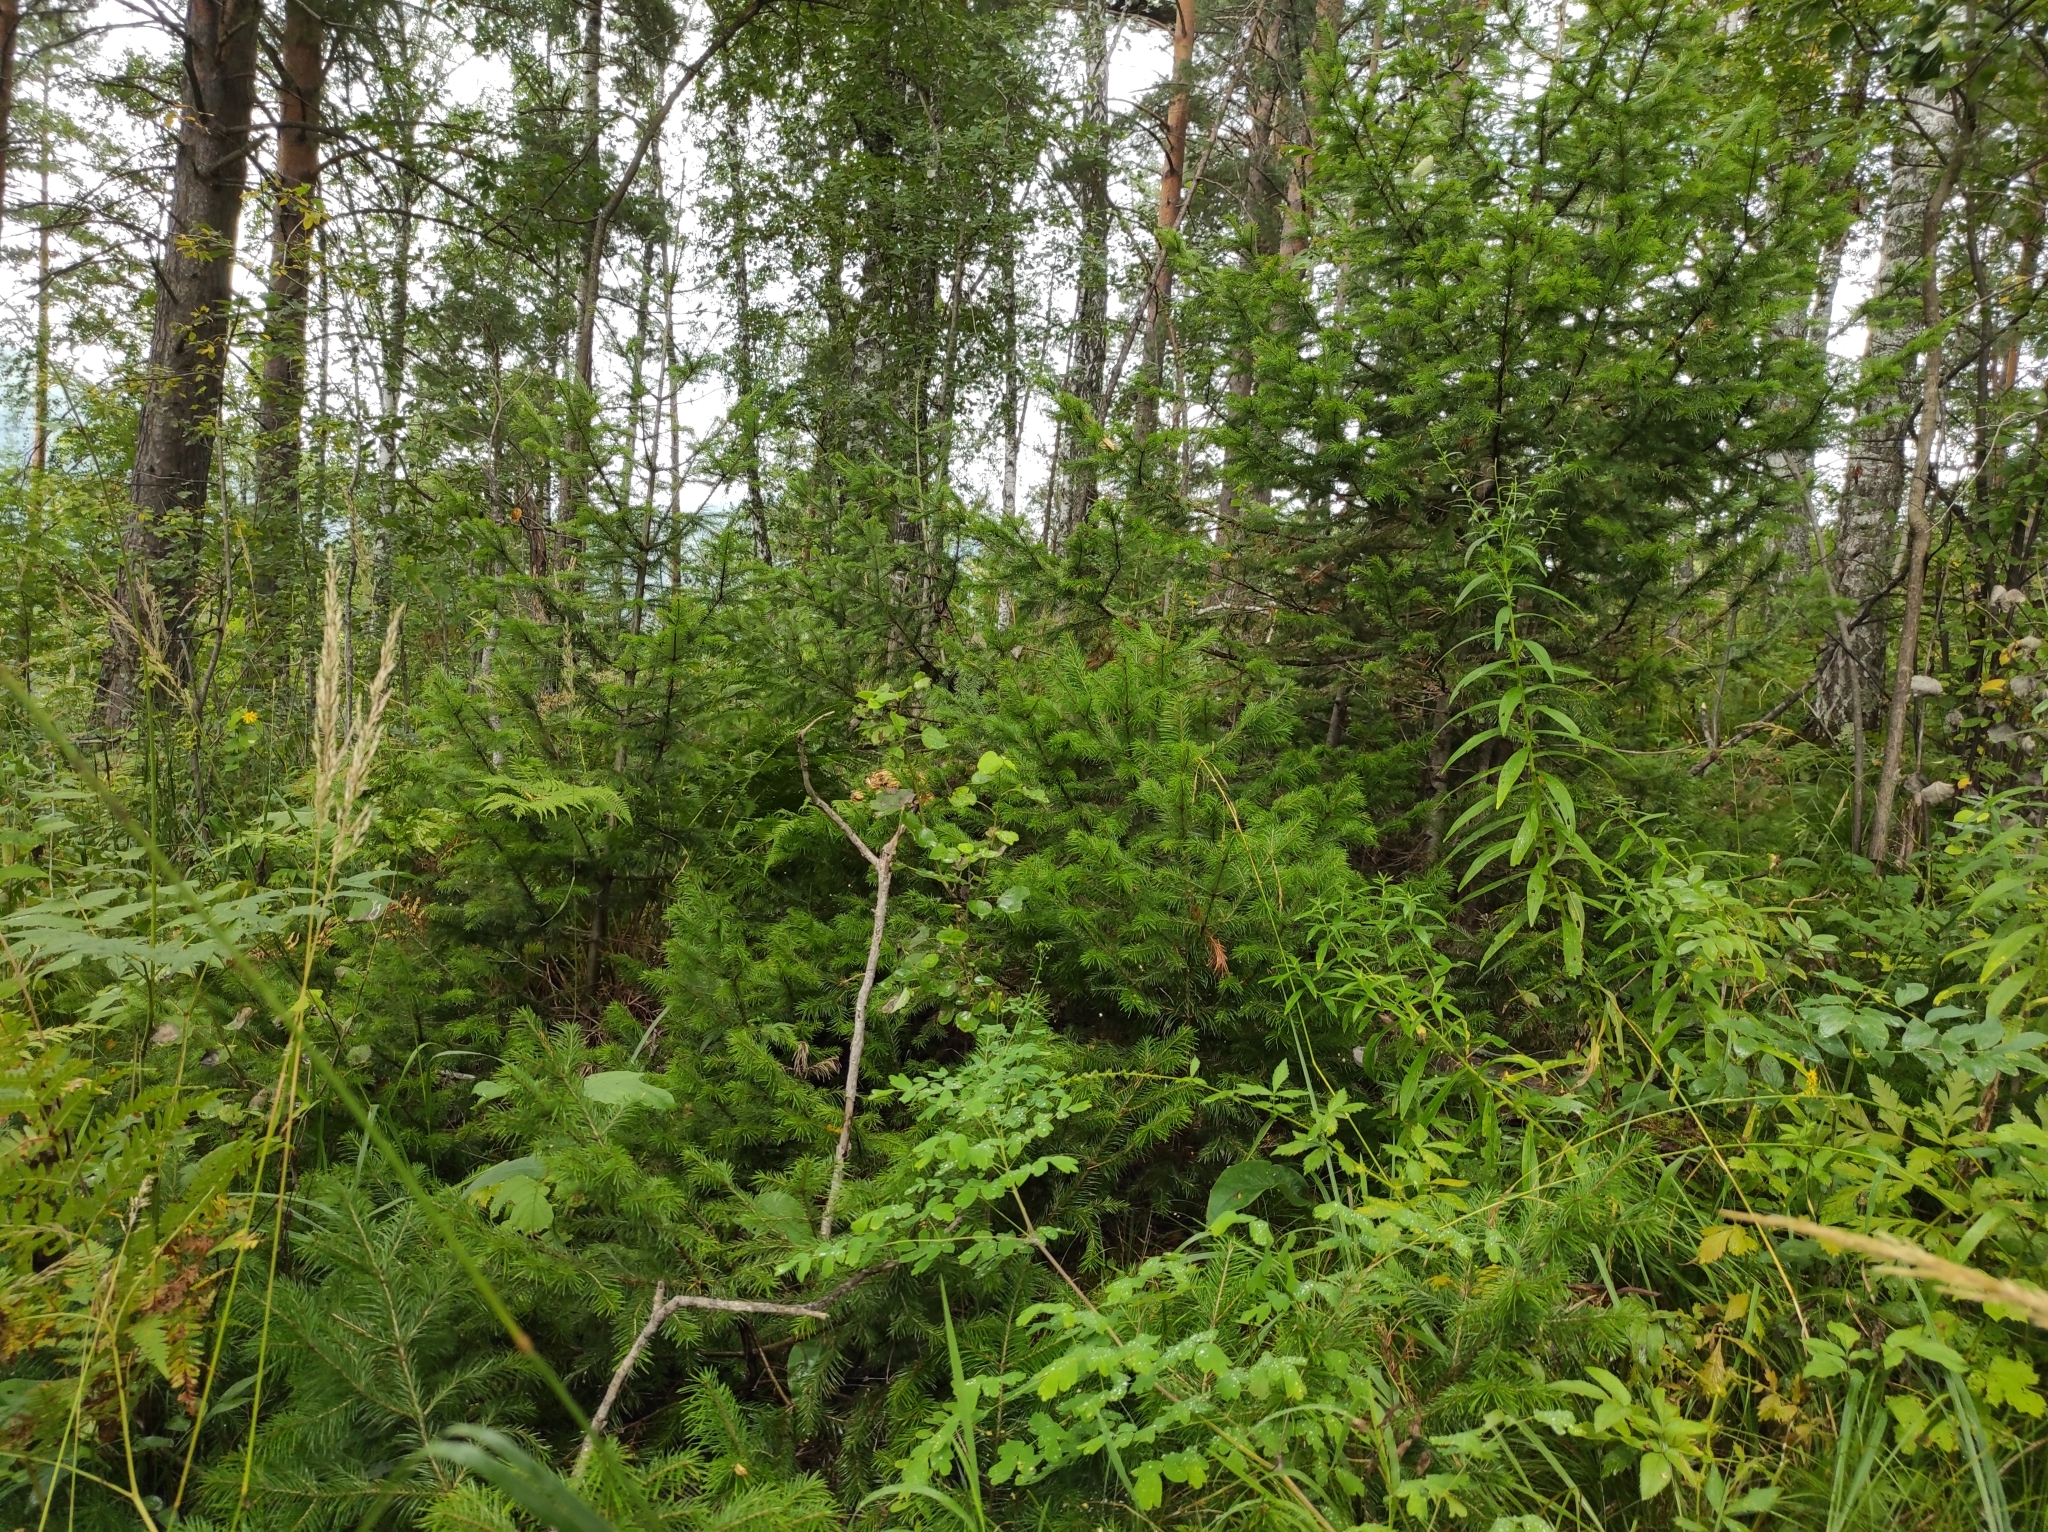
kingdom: Plantae
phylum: Tracheophyta
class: Pinopsida
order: Pinales
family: Pinaceae
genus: Abies
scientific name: Abies sibirica
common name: Siberian fir
